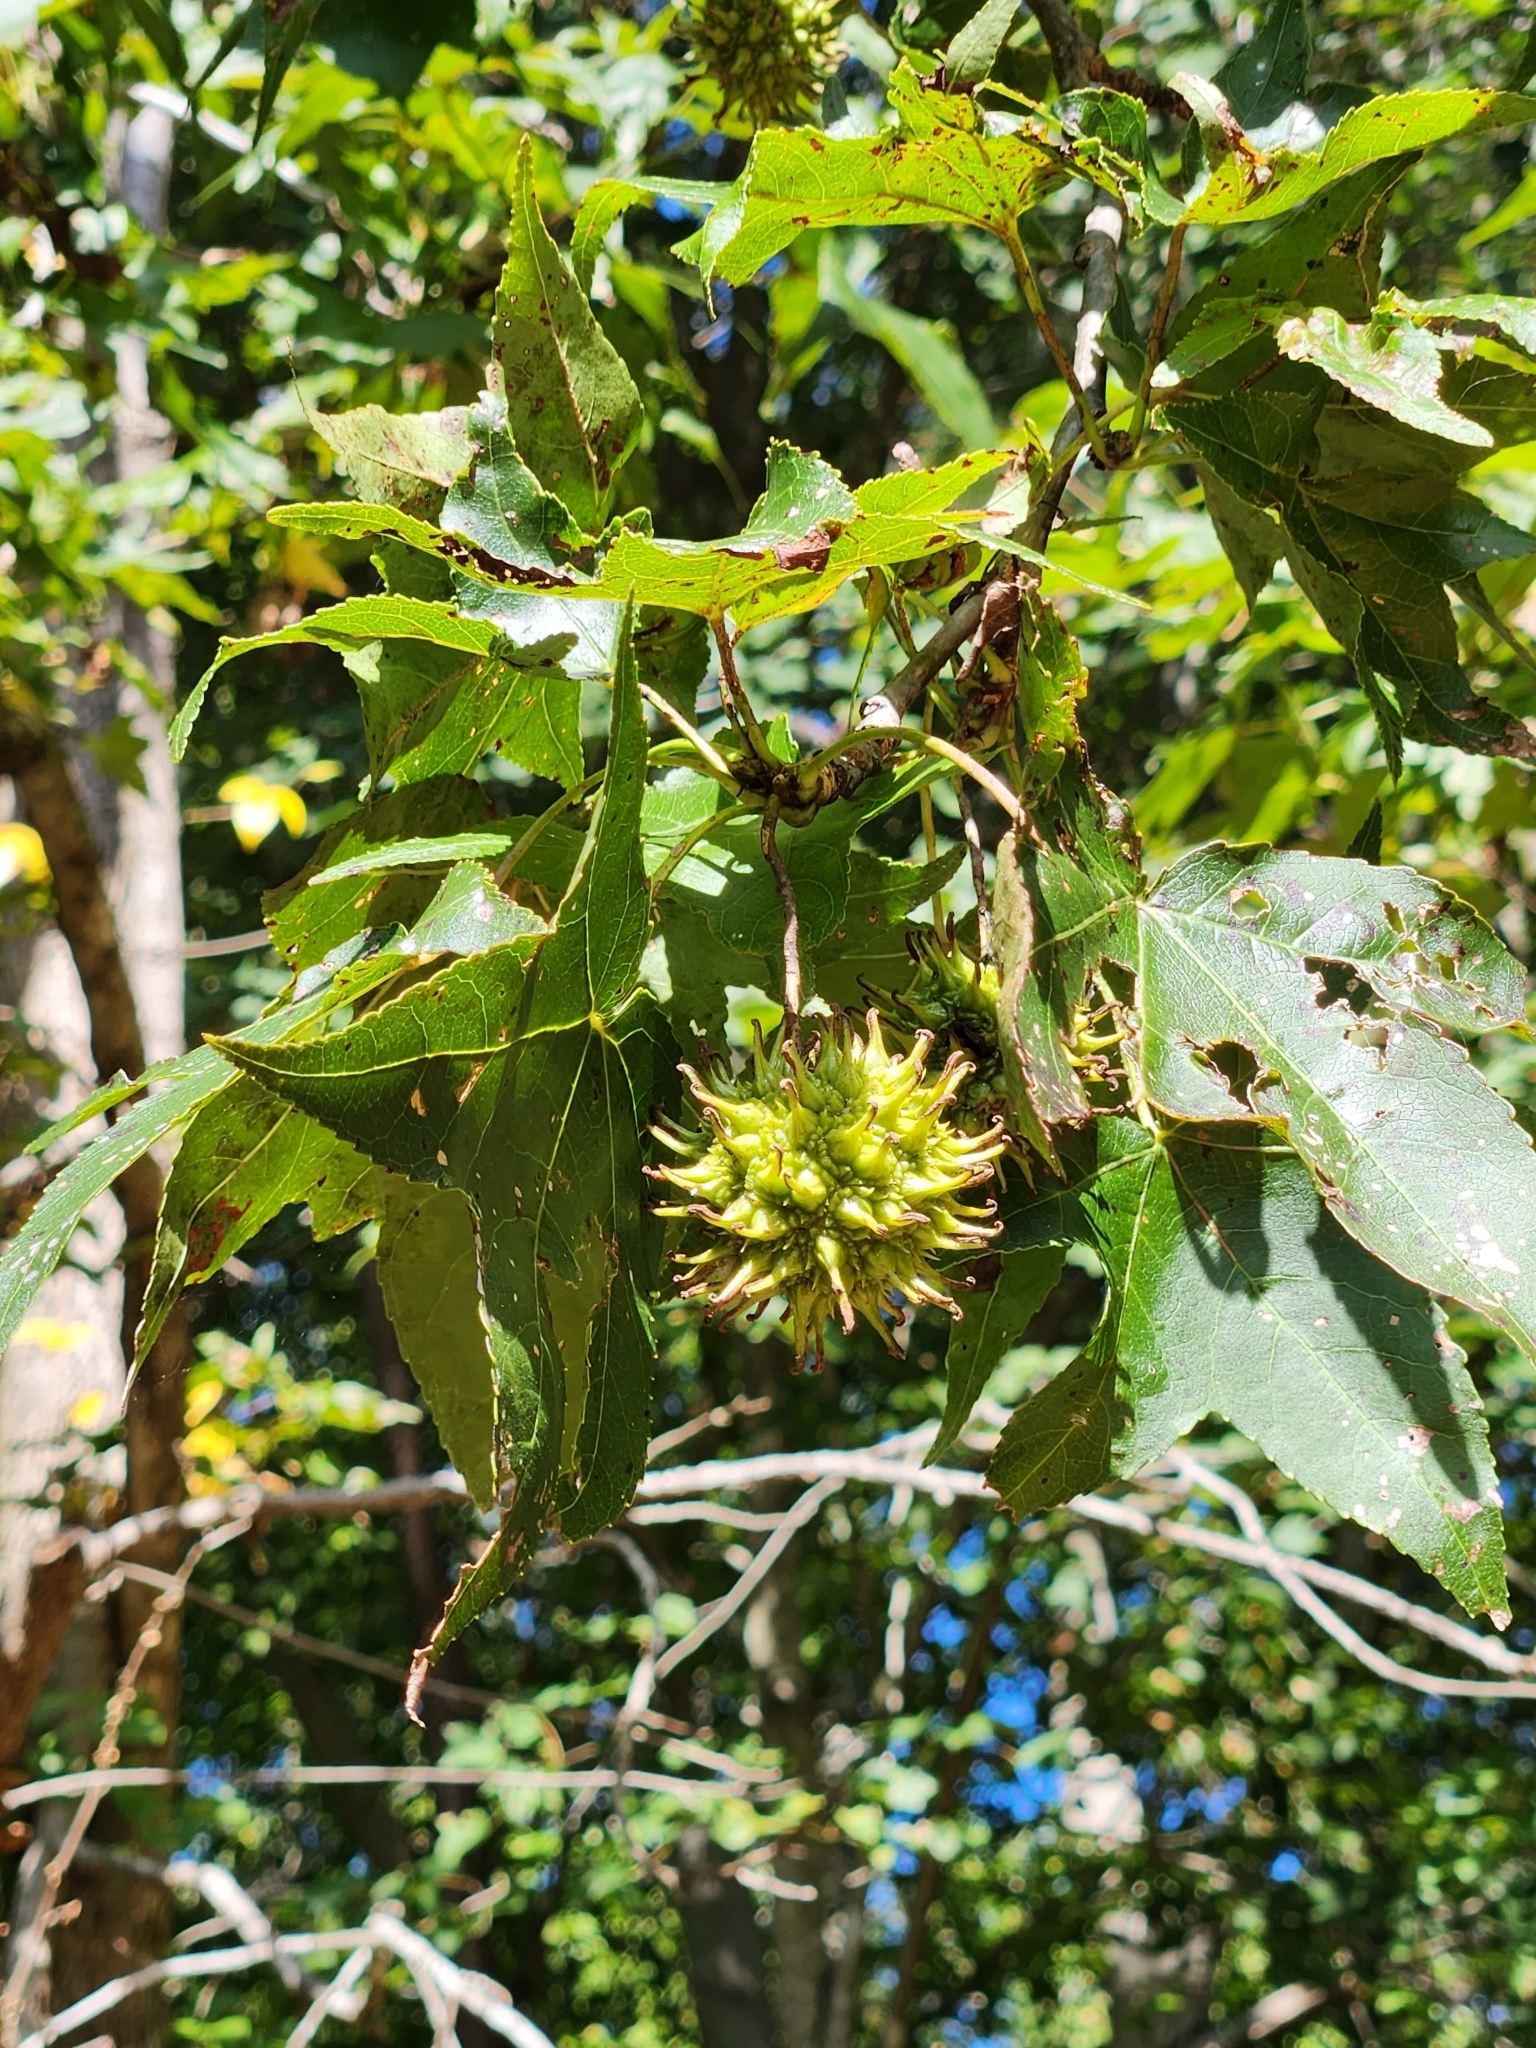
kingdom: Plantae
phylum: Tracheophyta
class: Magnoliopsida
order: Saxifragales
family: Altingiaceae
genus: Liquidambar
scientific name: Liquidambar styraciflua
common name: Sweet gum
